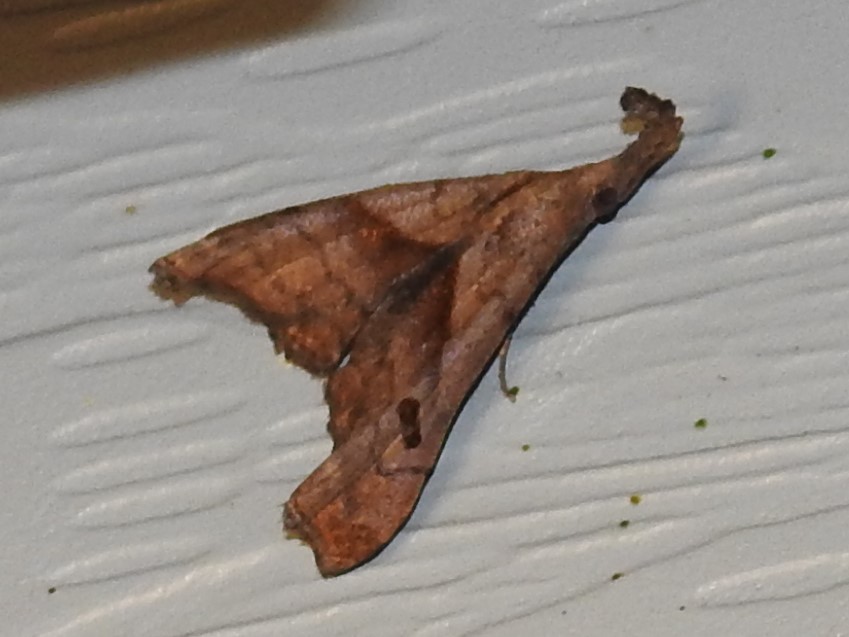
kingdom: Animalia
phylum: Arthropoda
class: Insecta
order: Lepidoptera
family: Erebidae
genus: Palthis
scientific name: Palthis angulalis
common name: Dark-spotted palthis moth
